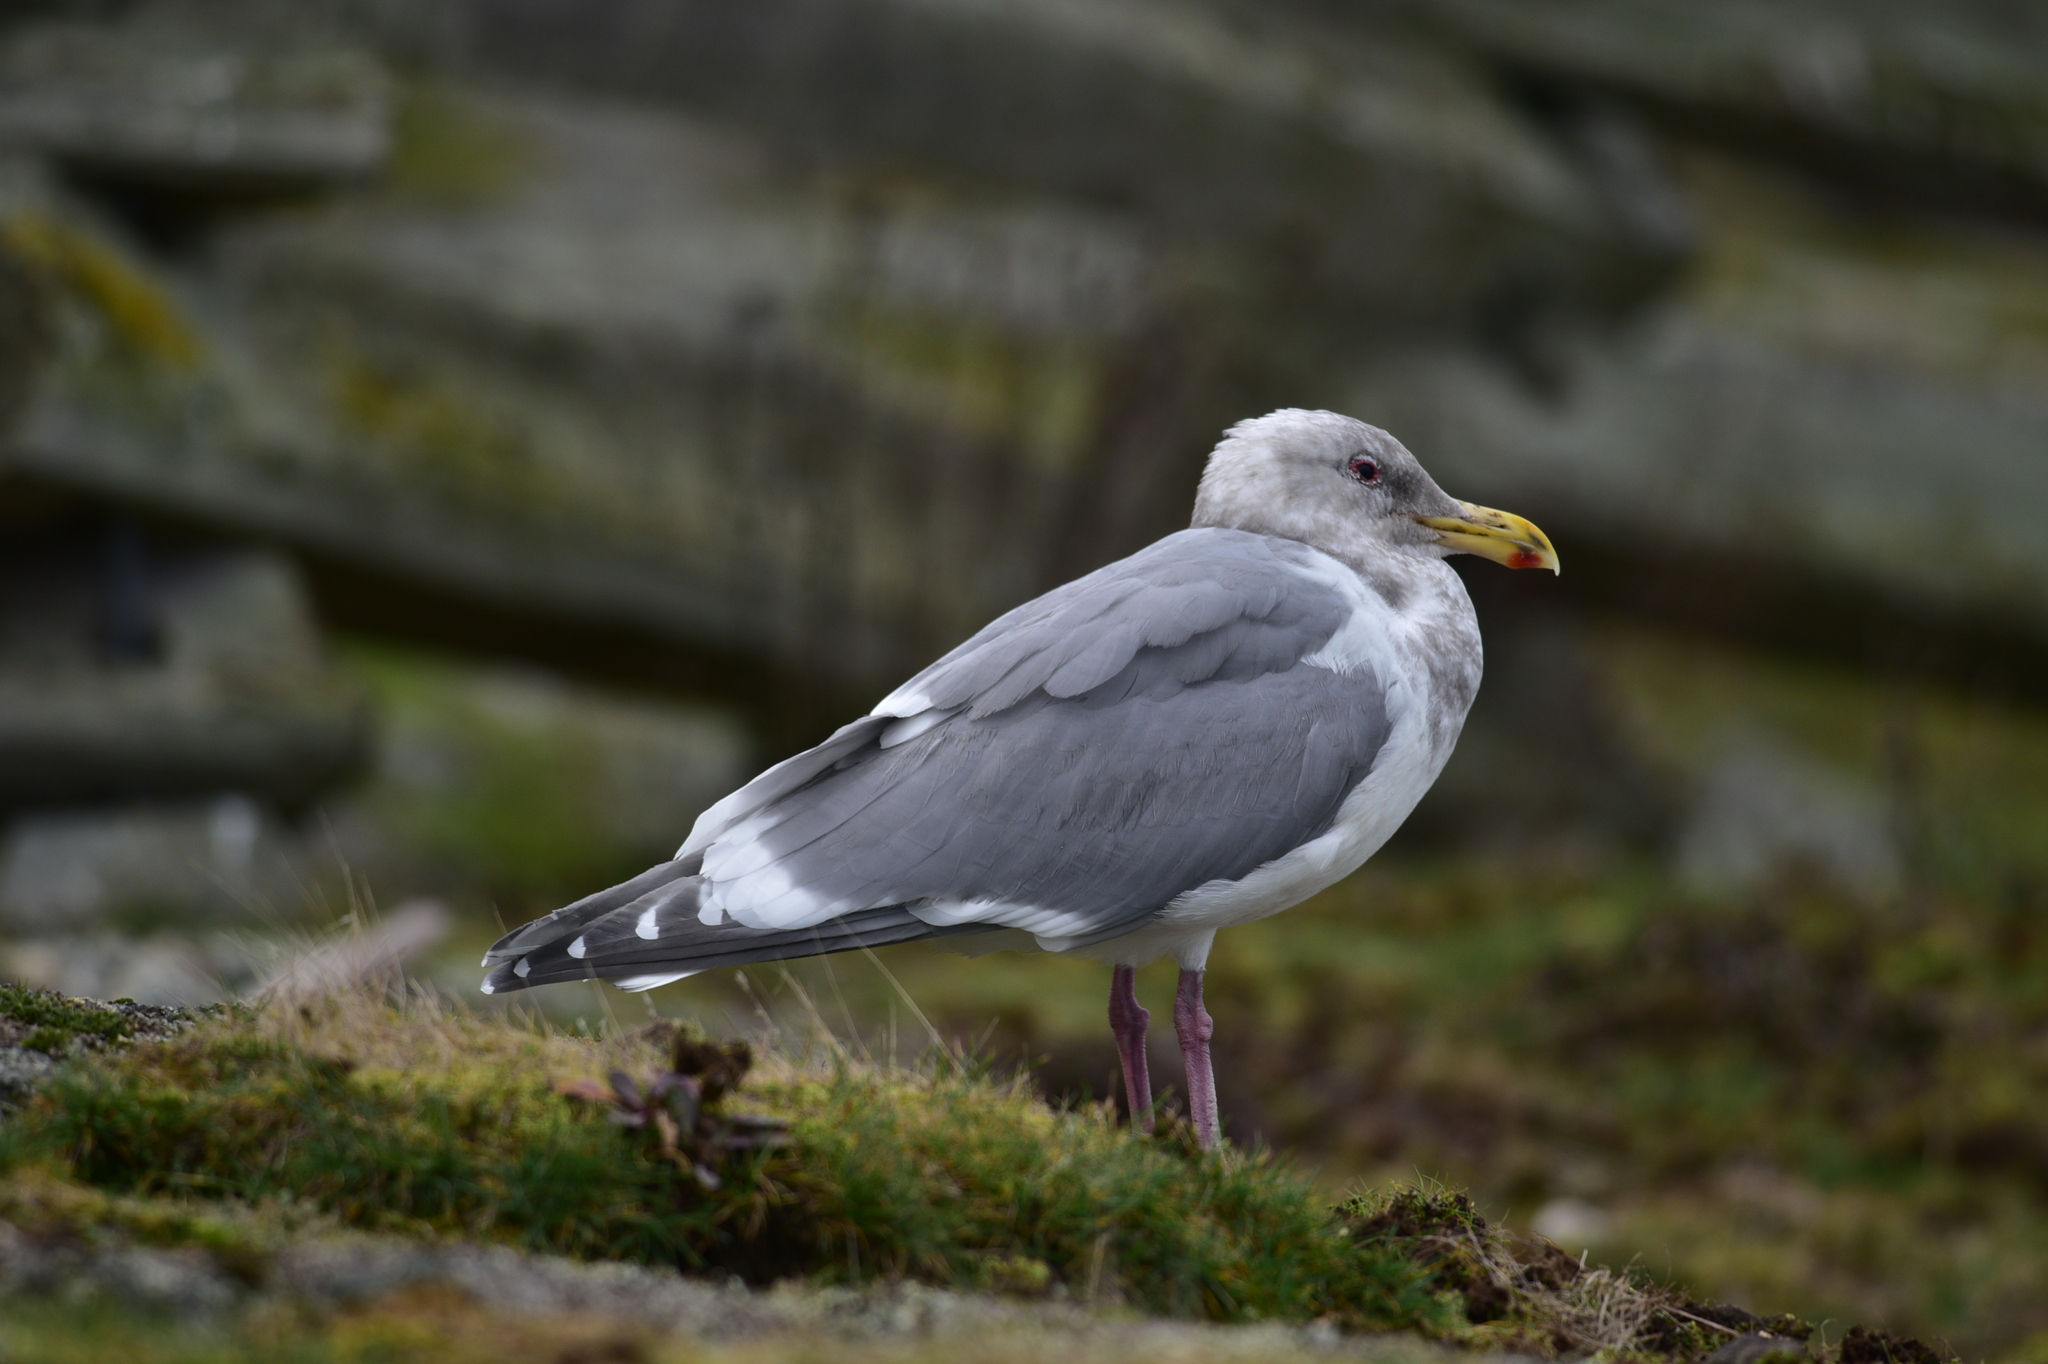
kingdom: Animalia
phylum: Chordata
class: Aves
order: Charadriiformes
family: Laridae
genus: Larus
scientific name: Larus
